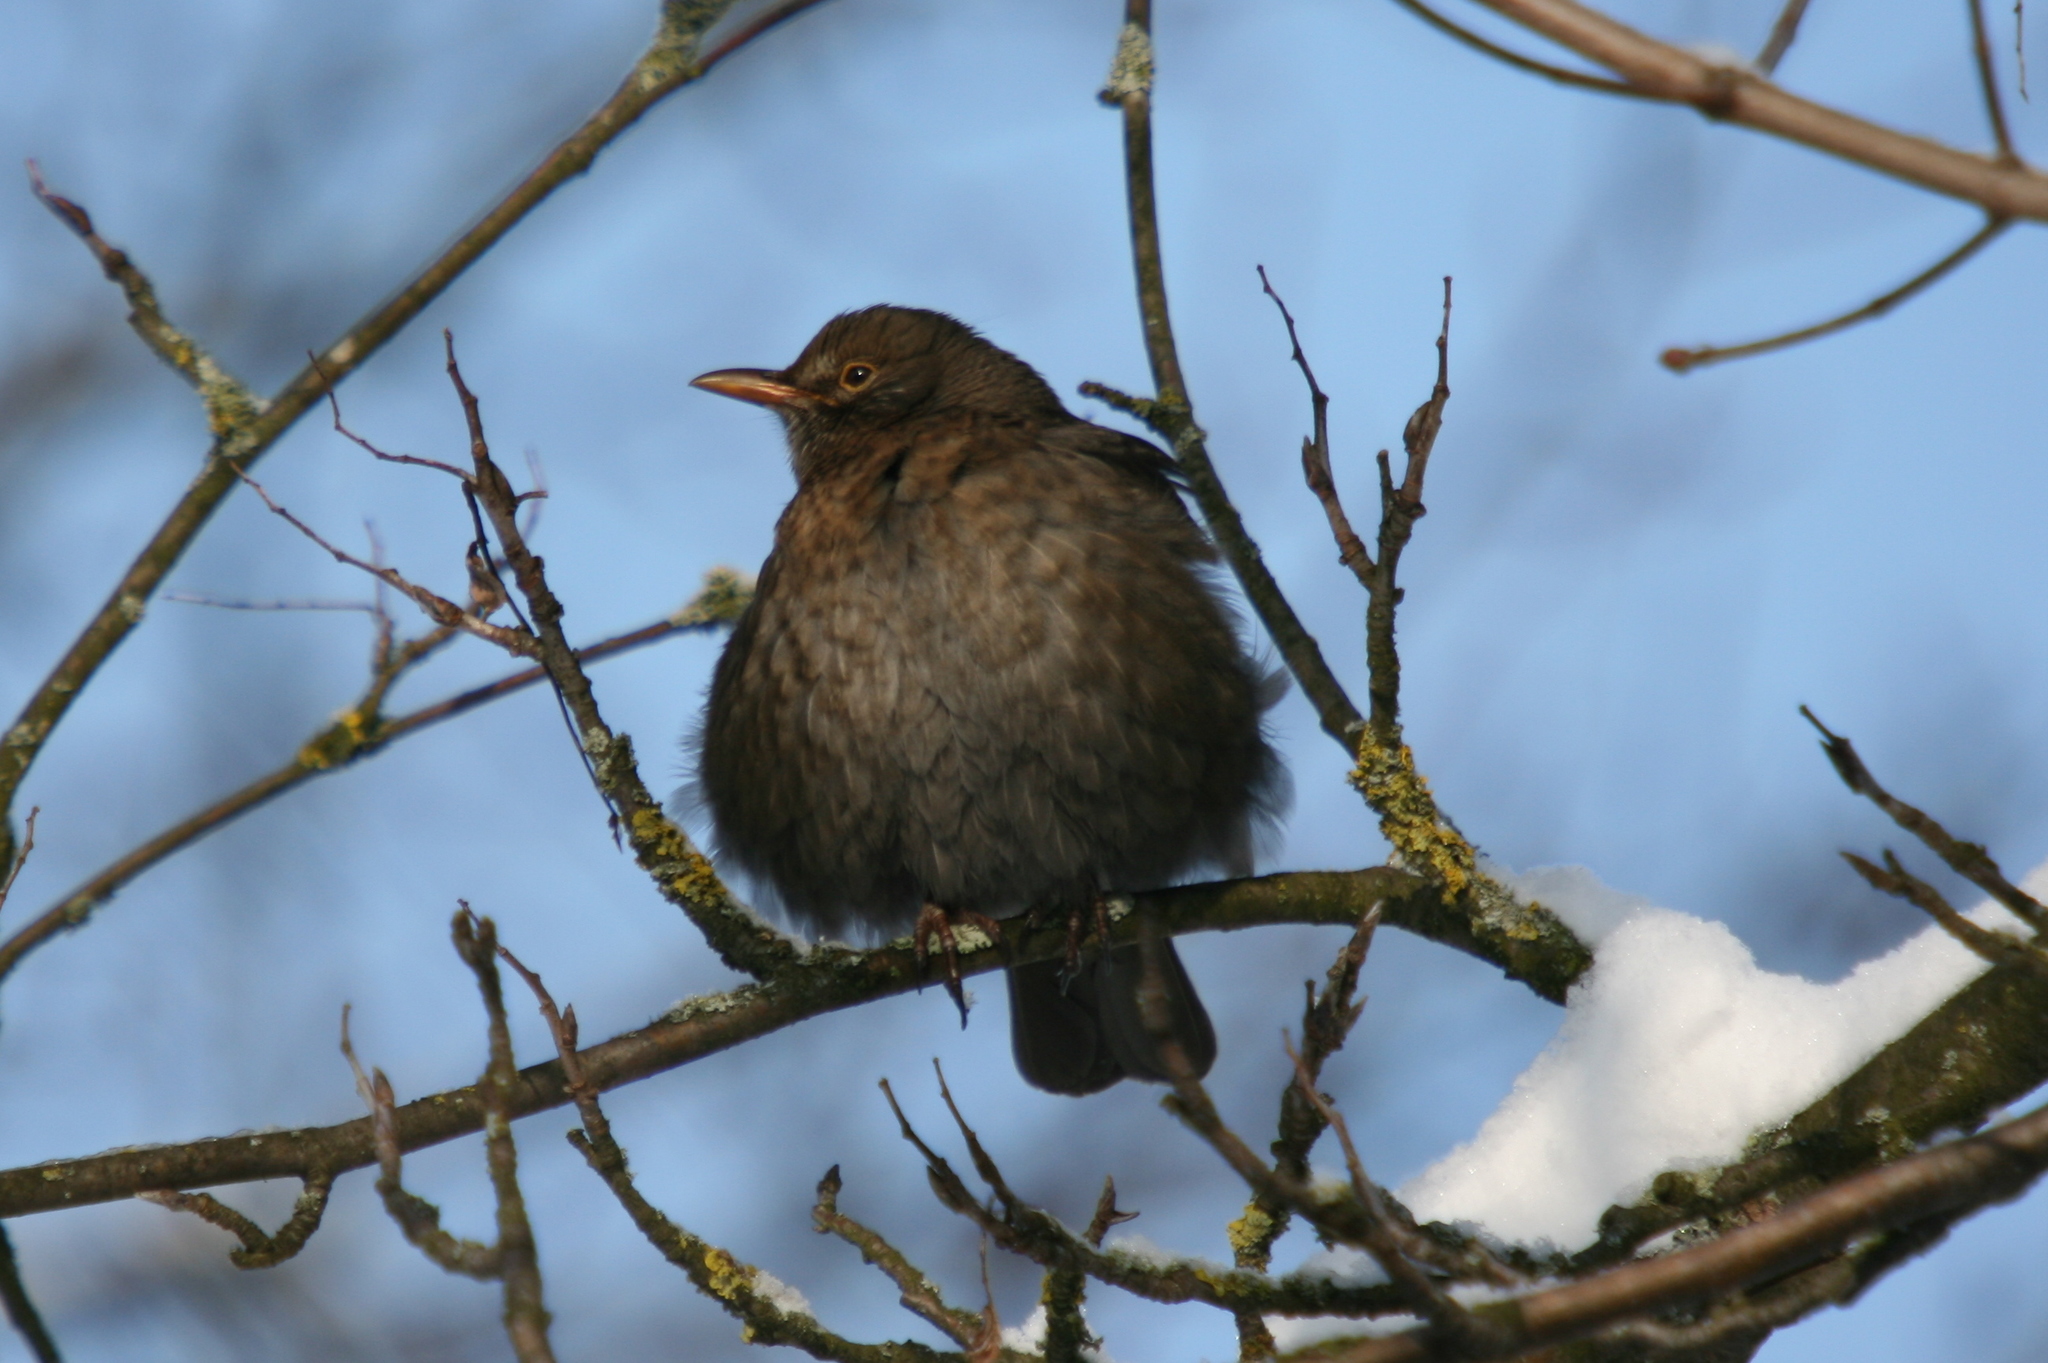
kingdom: Animalia
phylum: Chordata
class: Aves
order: Passeriformes
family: Turdidae
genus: Turdus
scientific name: Turdus merula
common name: Common blackbird
